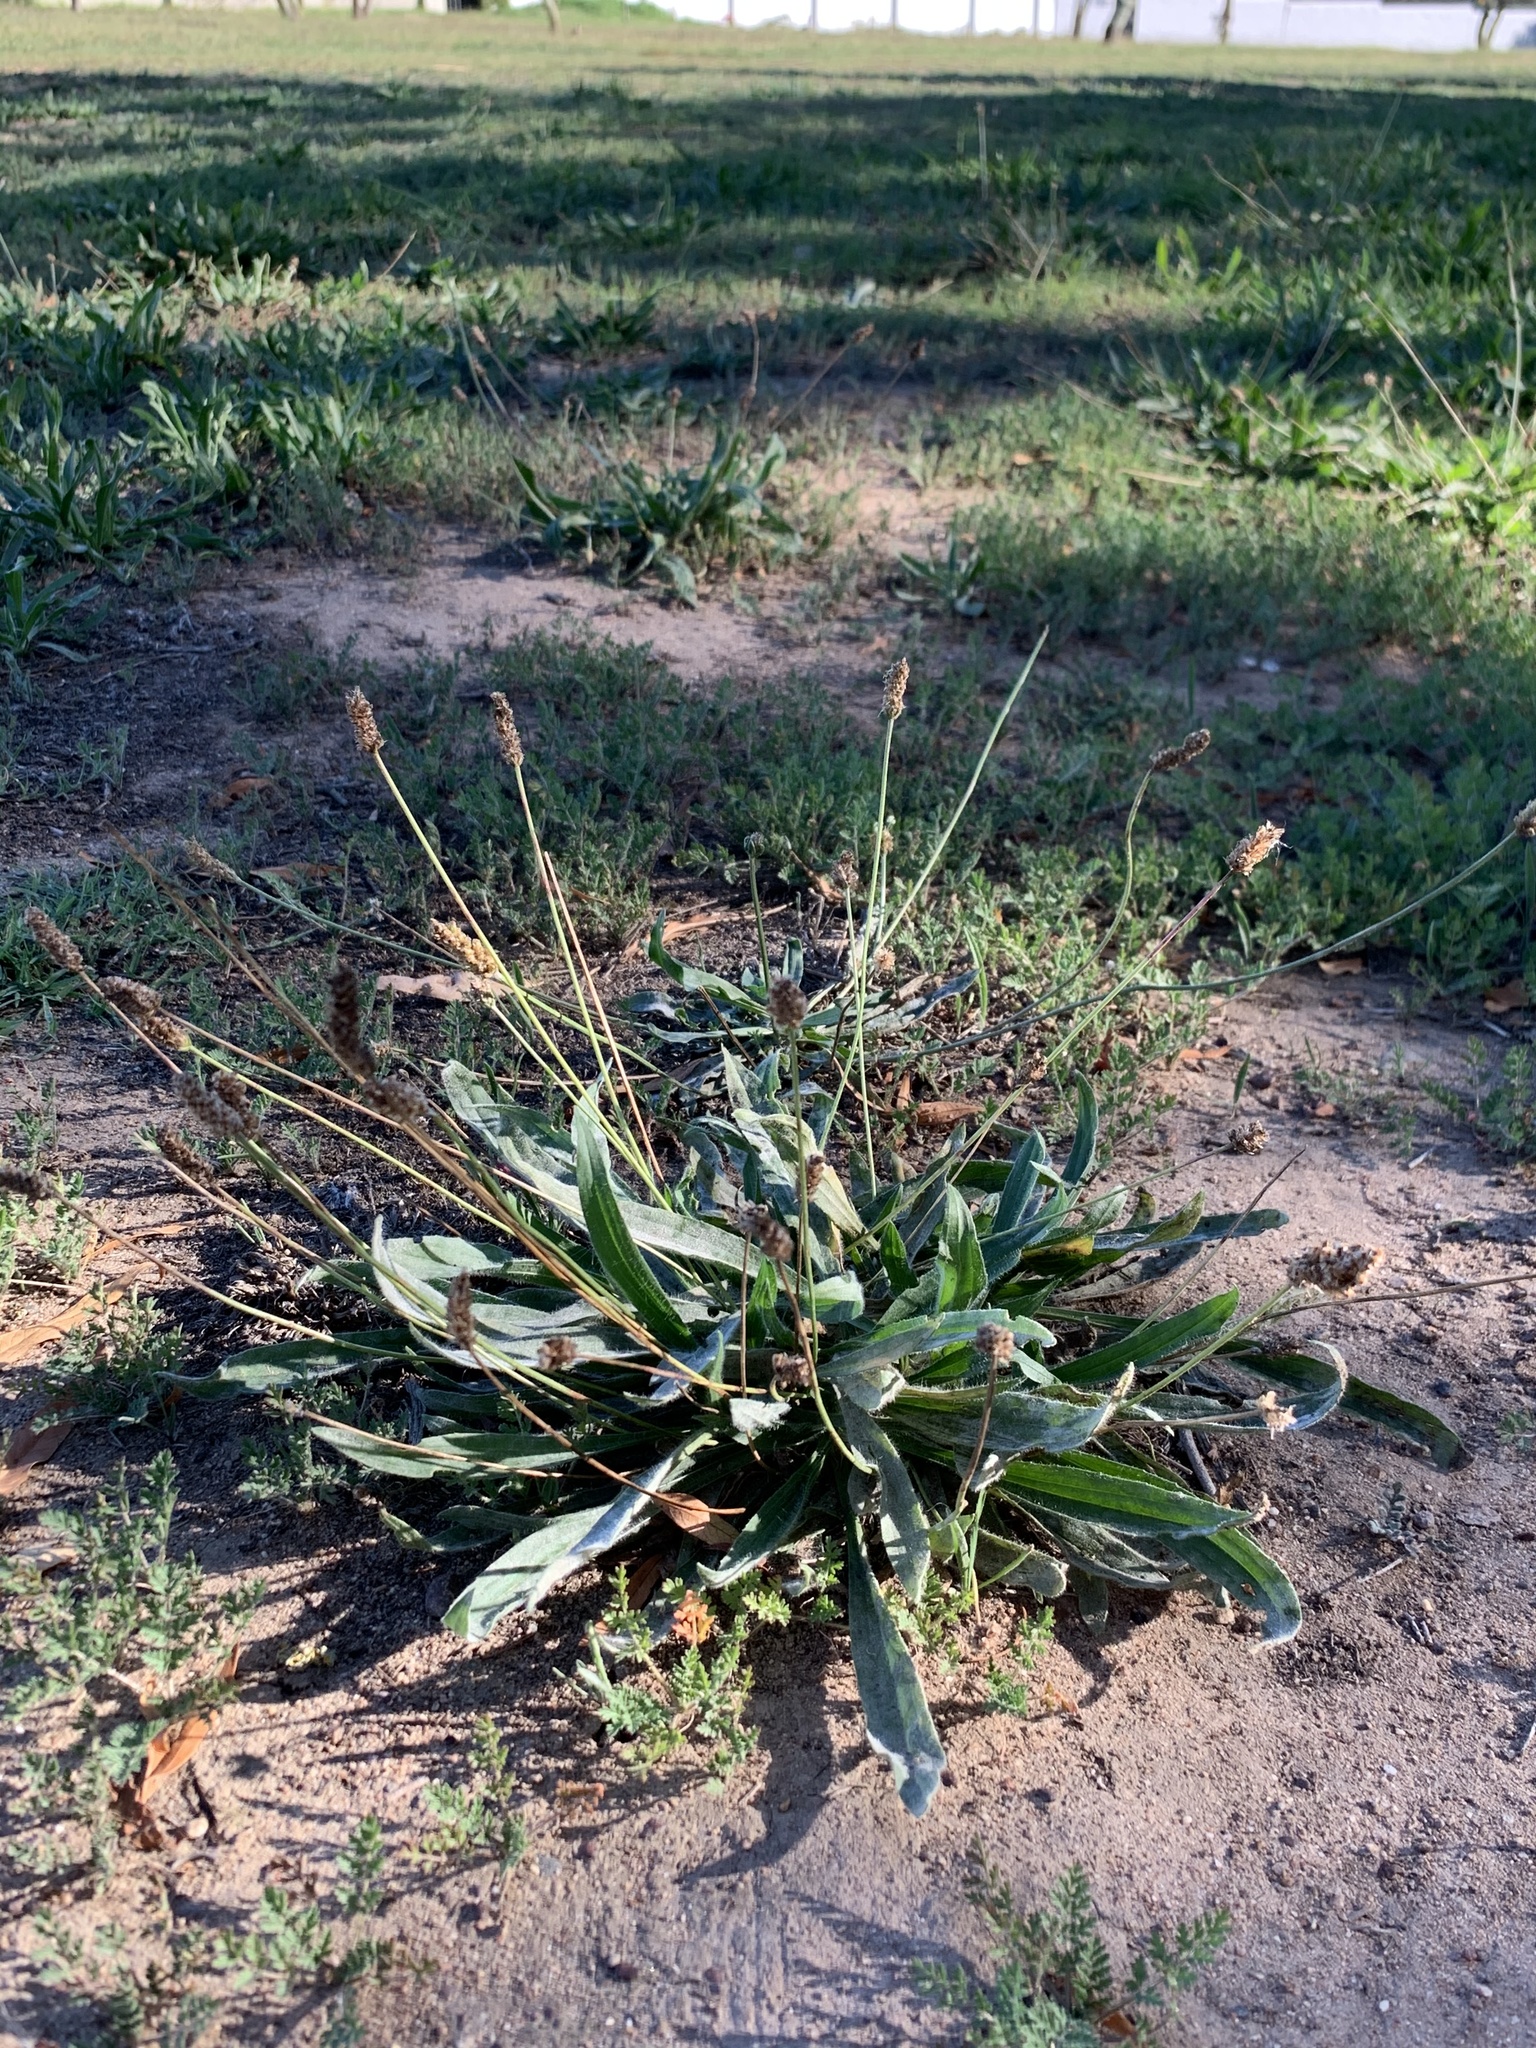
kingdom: Plantae
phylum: Tracheophyta
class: Magnoliopsida
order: Lamiales
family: Plantaginaceae
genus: Plantago
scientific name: Plantago lanceolata
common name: Ribwort plantain
